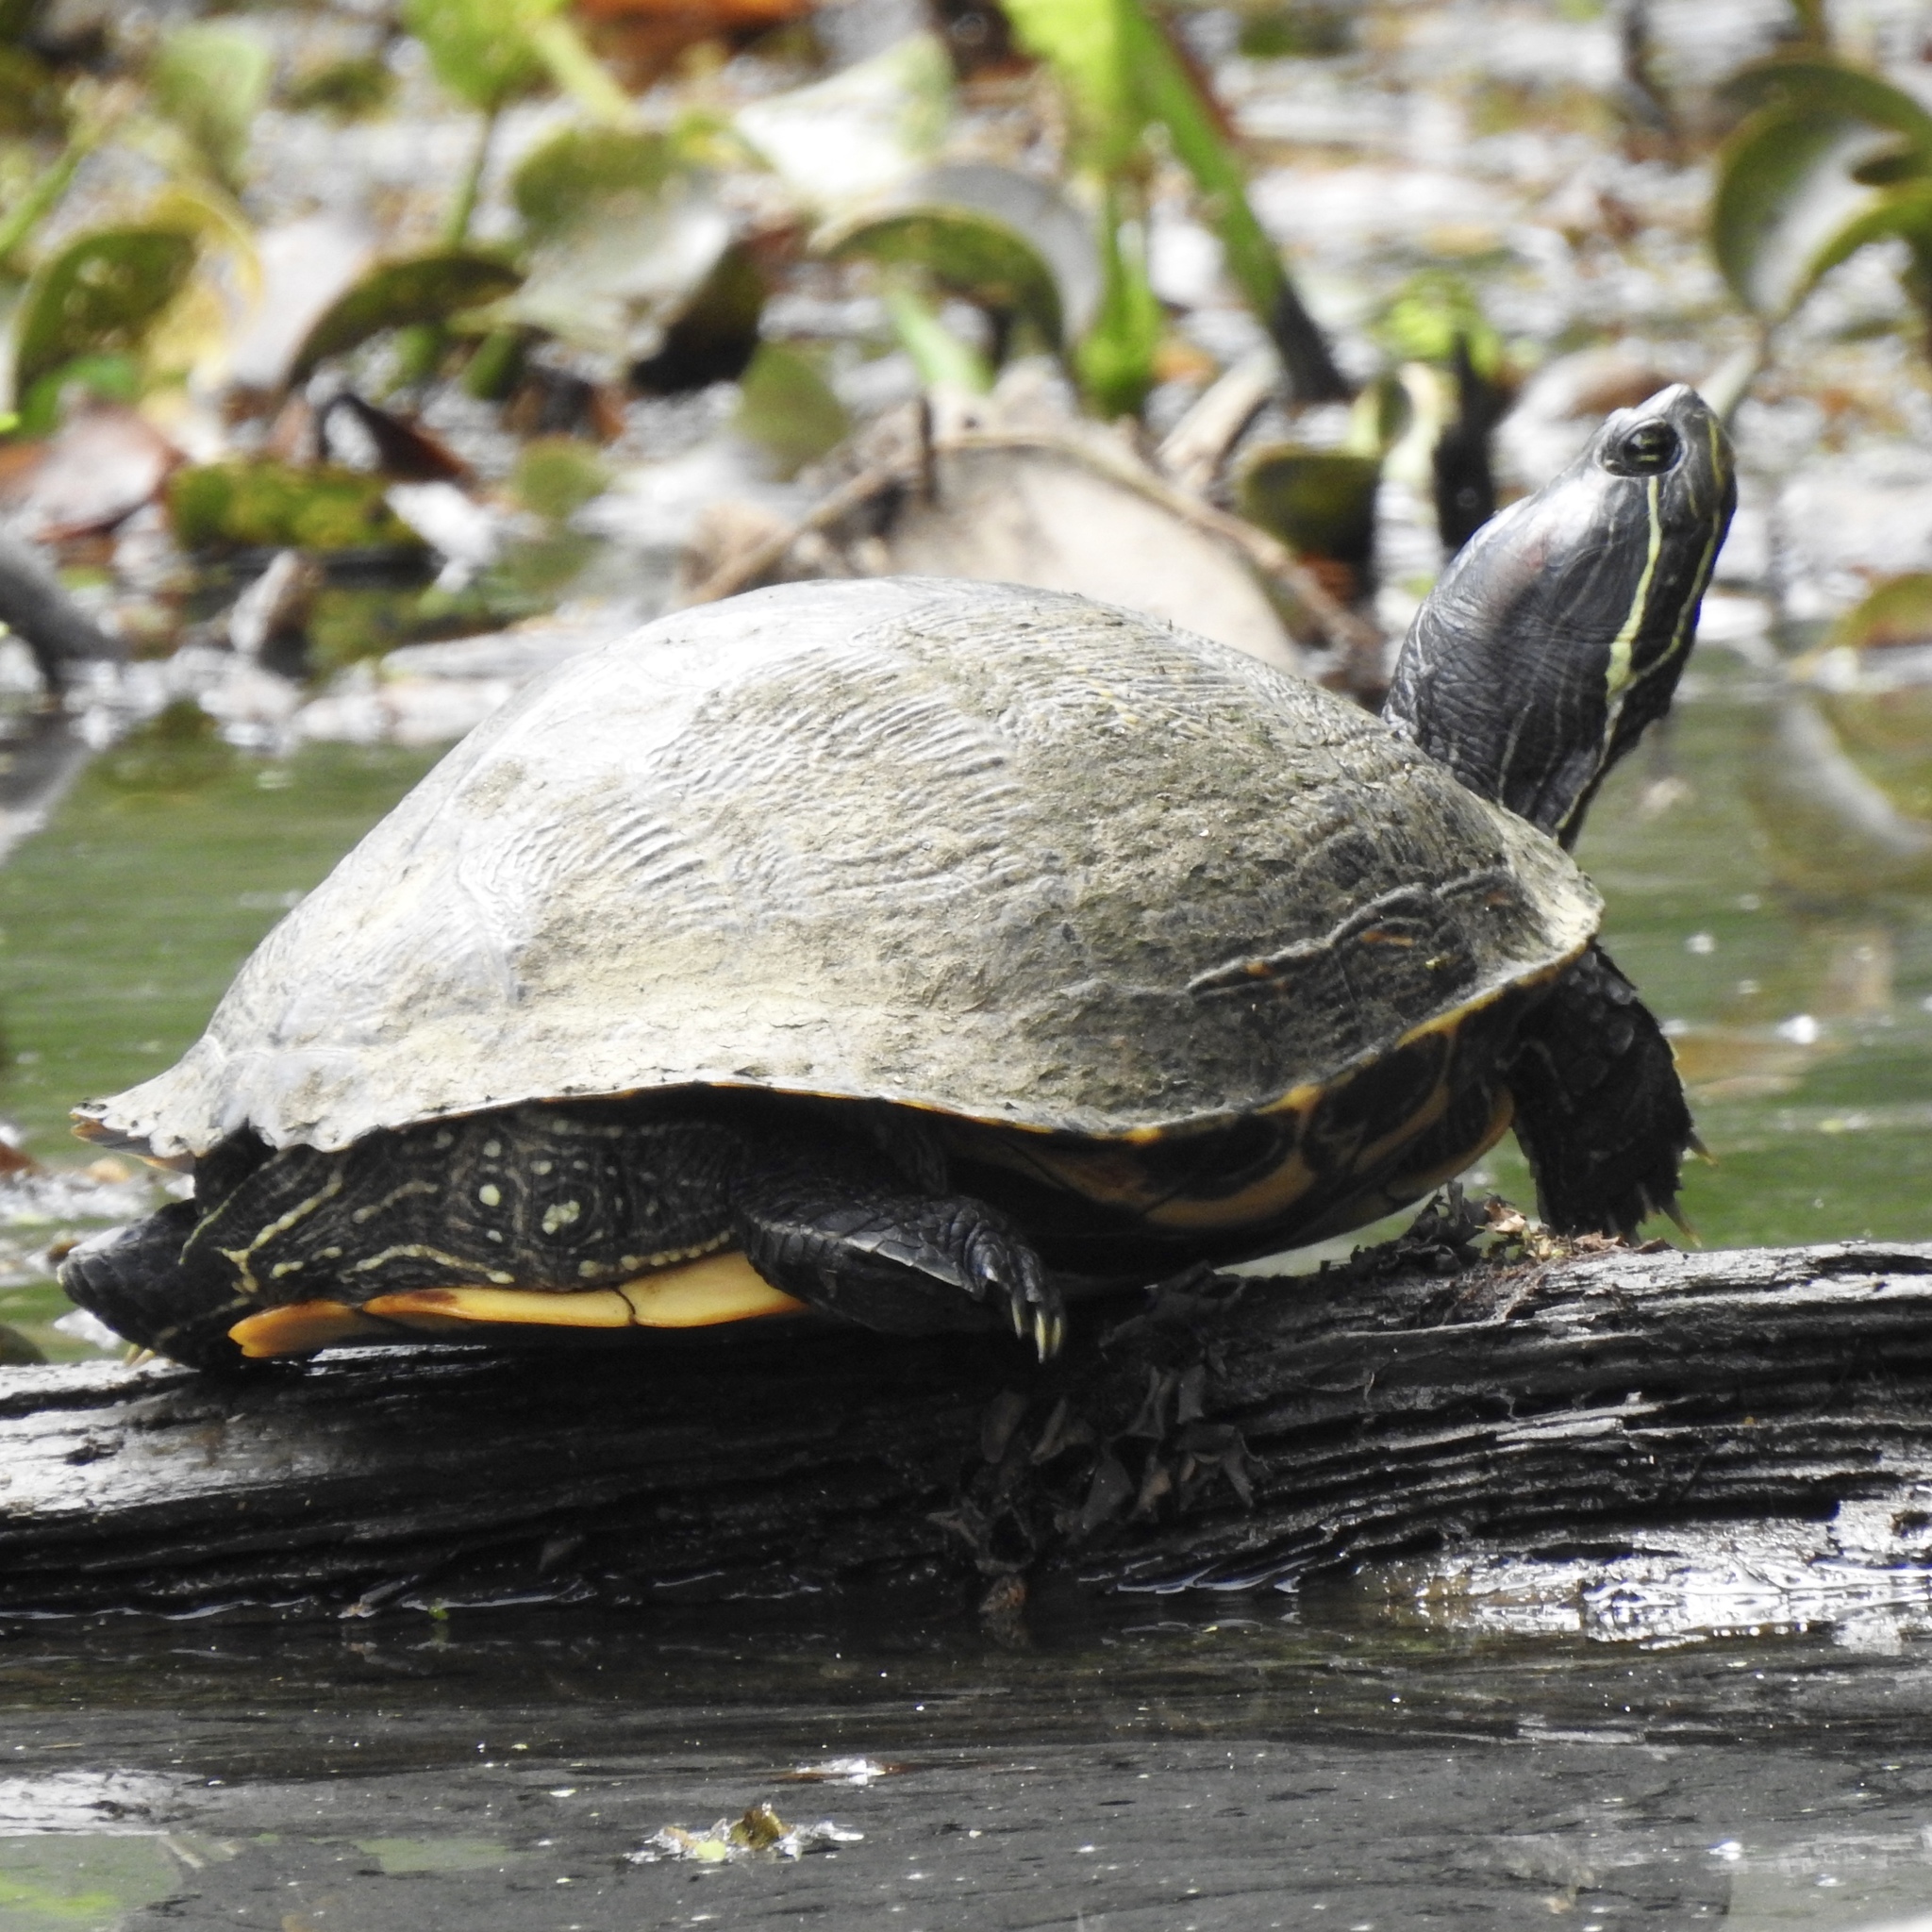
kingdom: Animalia
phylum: Chordata
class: Testudines
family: Emydidae
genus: Trachemys
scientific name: Trachemys scripta
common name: Slider
